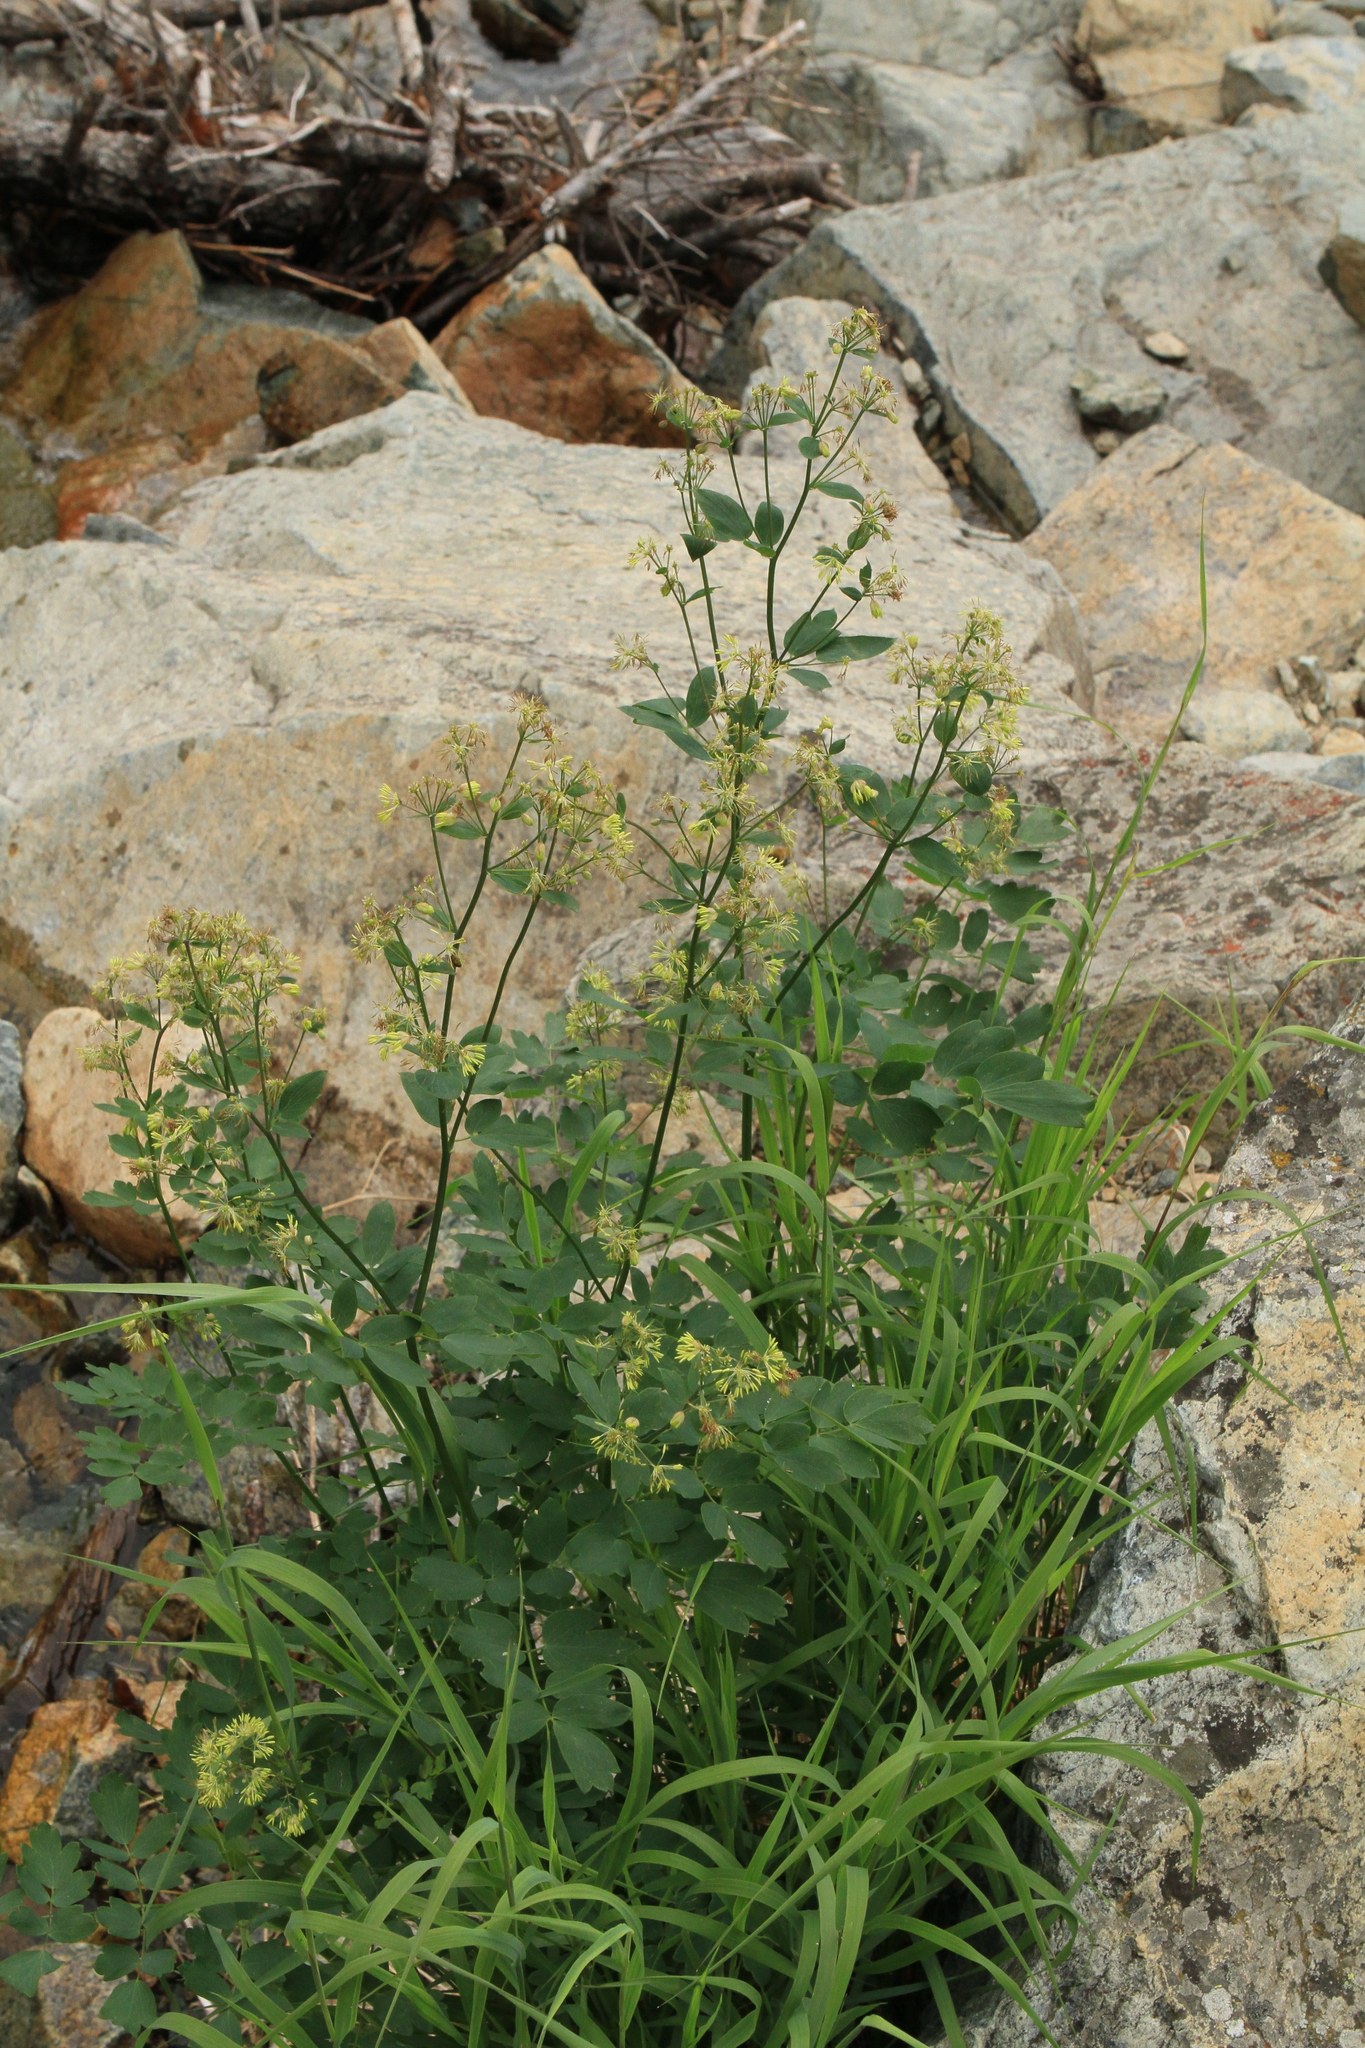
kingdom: Plantae
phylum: Tracheophyta
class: Magnoliopsida
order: Ranunculales
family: Ranunculaceae
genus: Thalictrum
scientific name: Thalictrum minus
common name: Lesser meadow-rue
